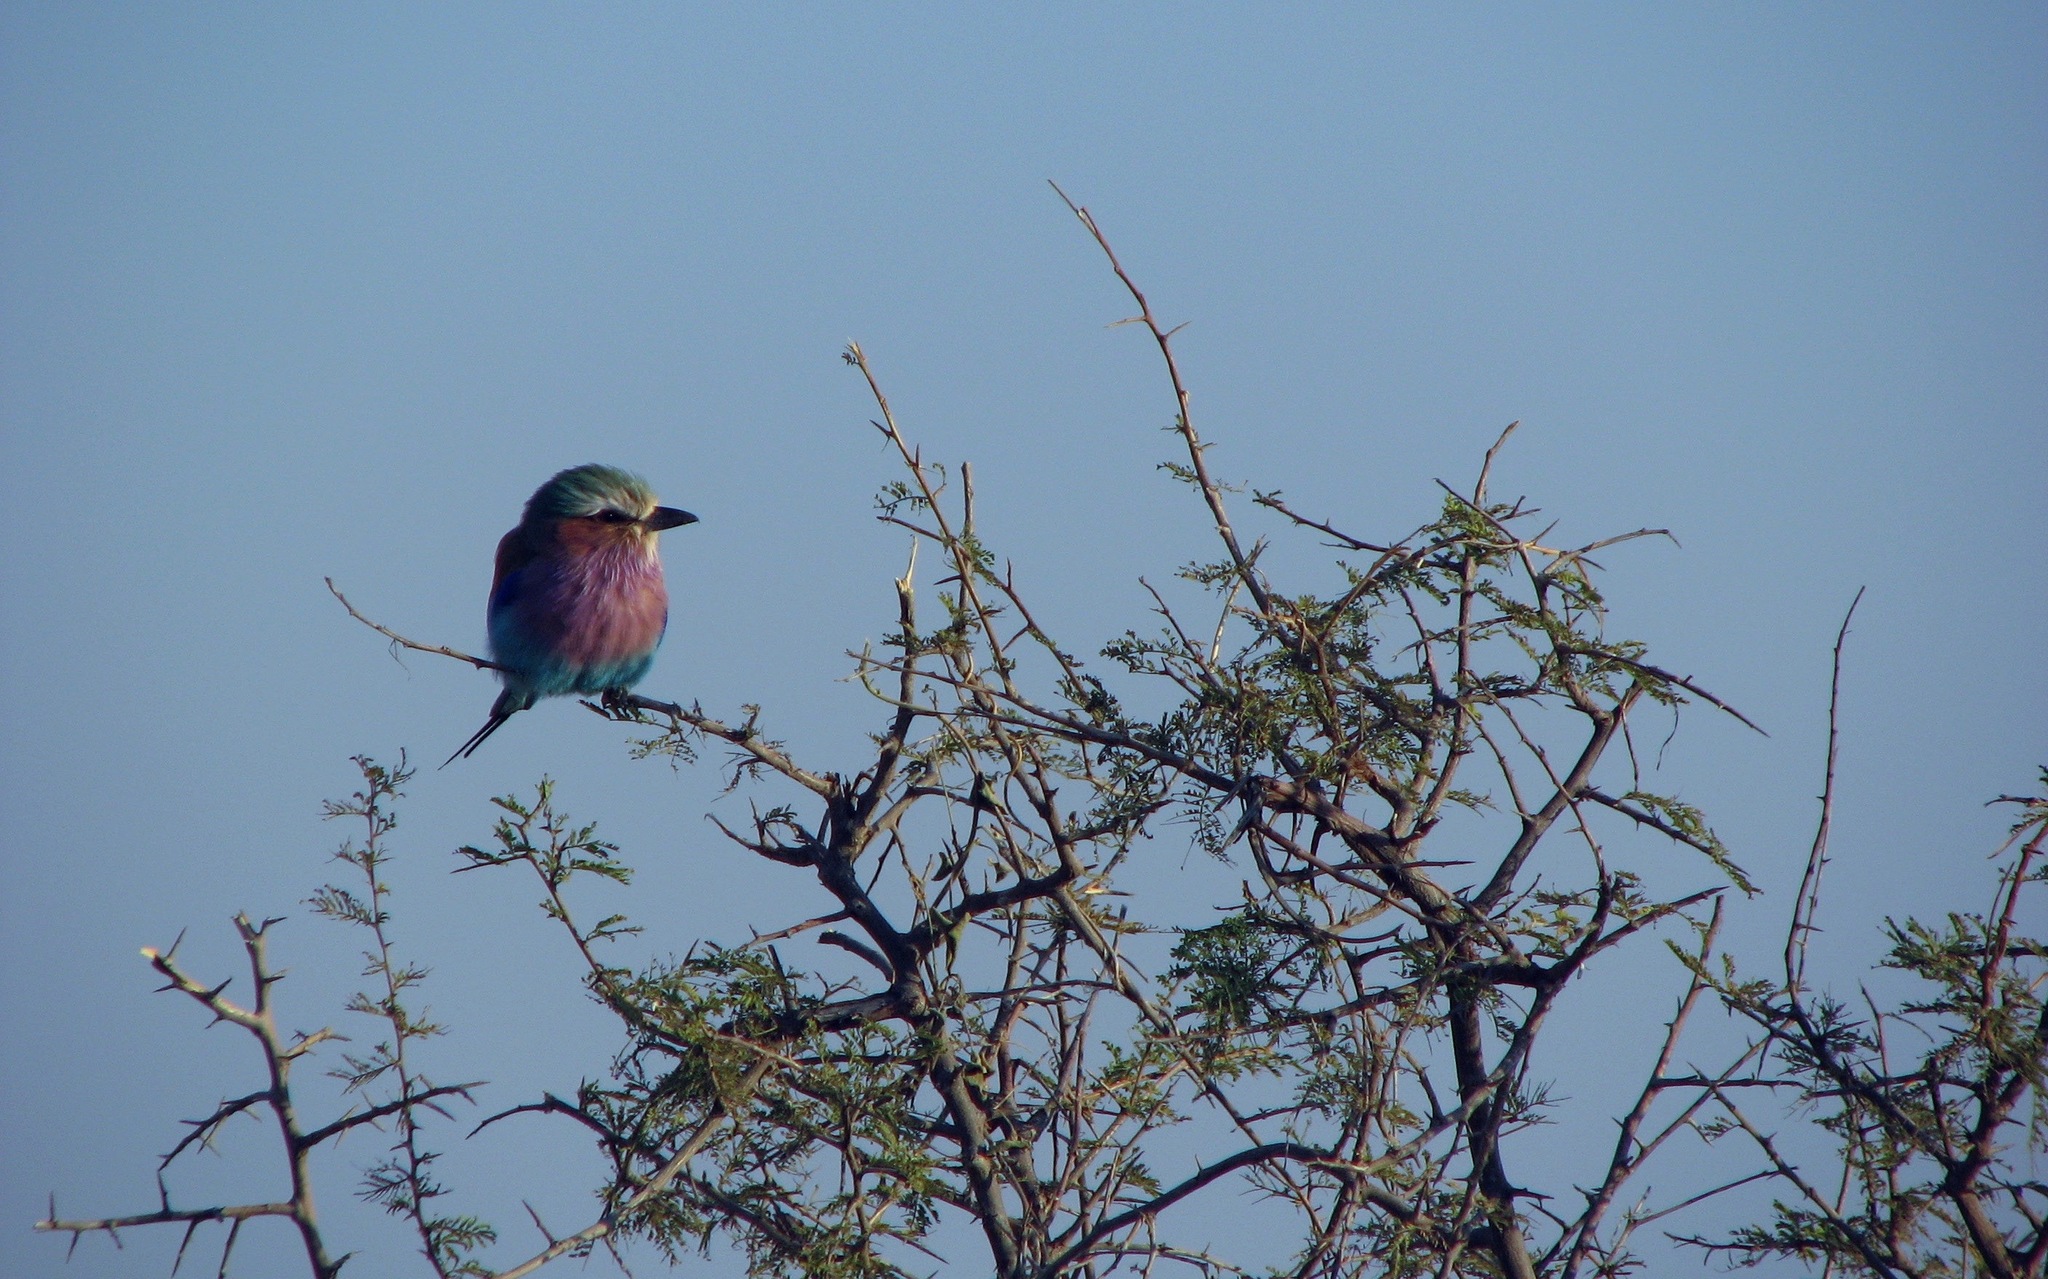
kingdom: Animalia
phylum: Chordata
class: Aves
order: Coraciiformes
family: Coraciidae
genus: Coracias
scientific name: Coracias caudatus
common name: Lilac-breasted roller
